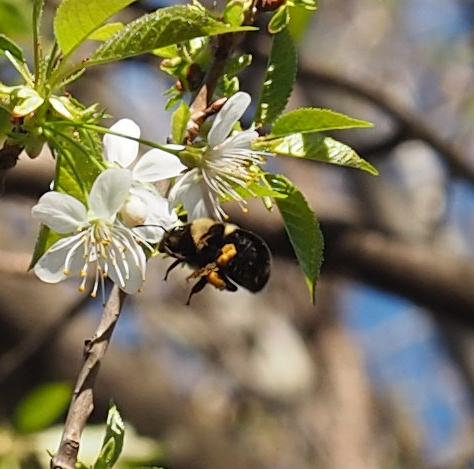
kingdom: Animalia
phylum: Arthropoda
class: Insecta
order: Hymenoptera
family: Apidae
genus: Bombus
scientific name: Bombus
